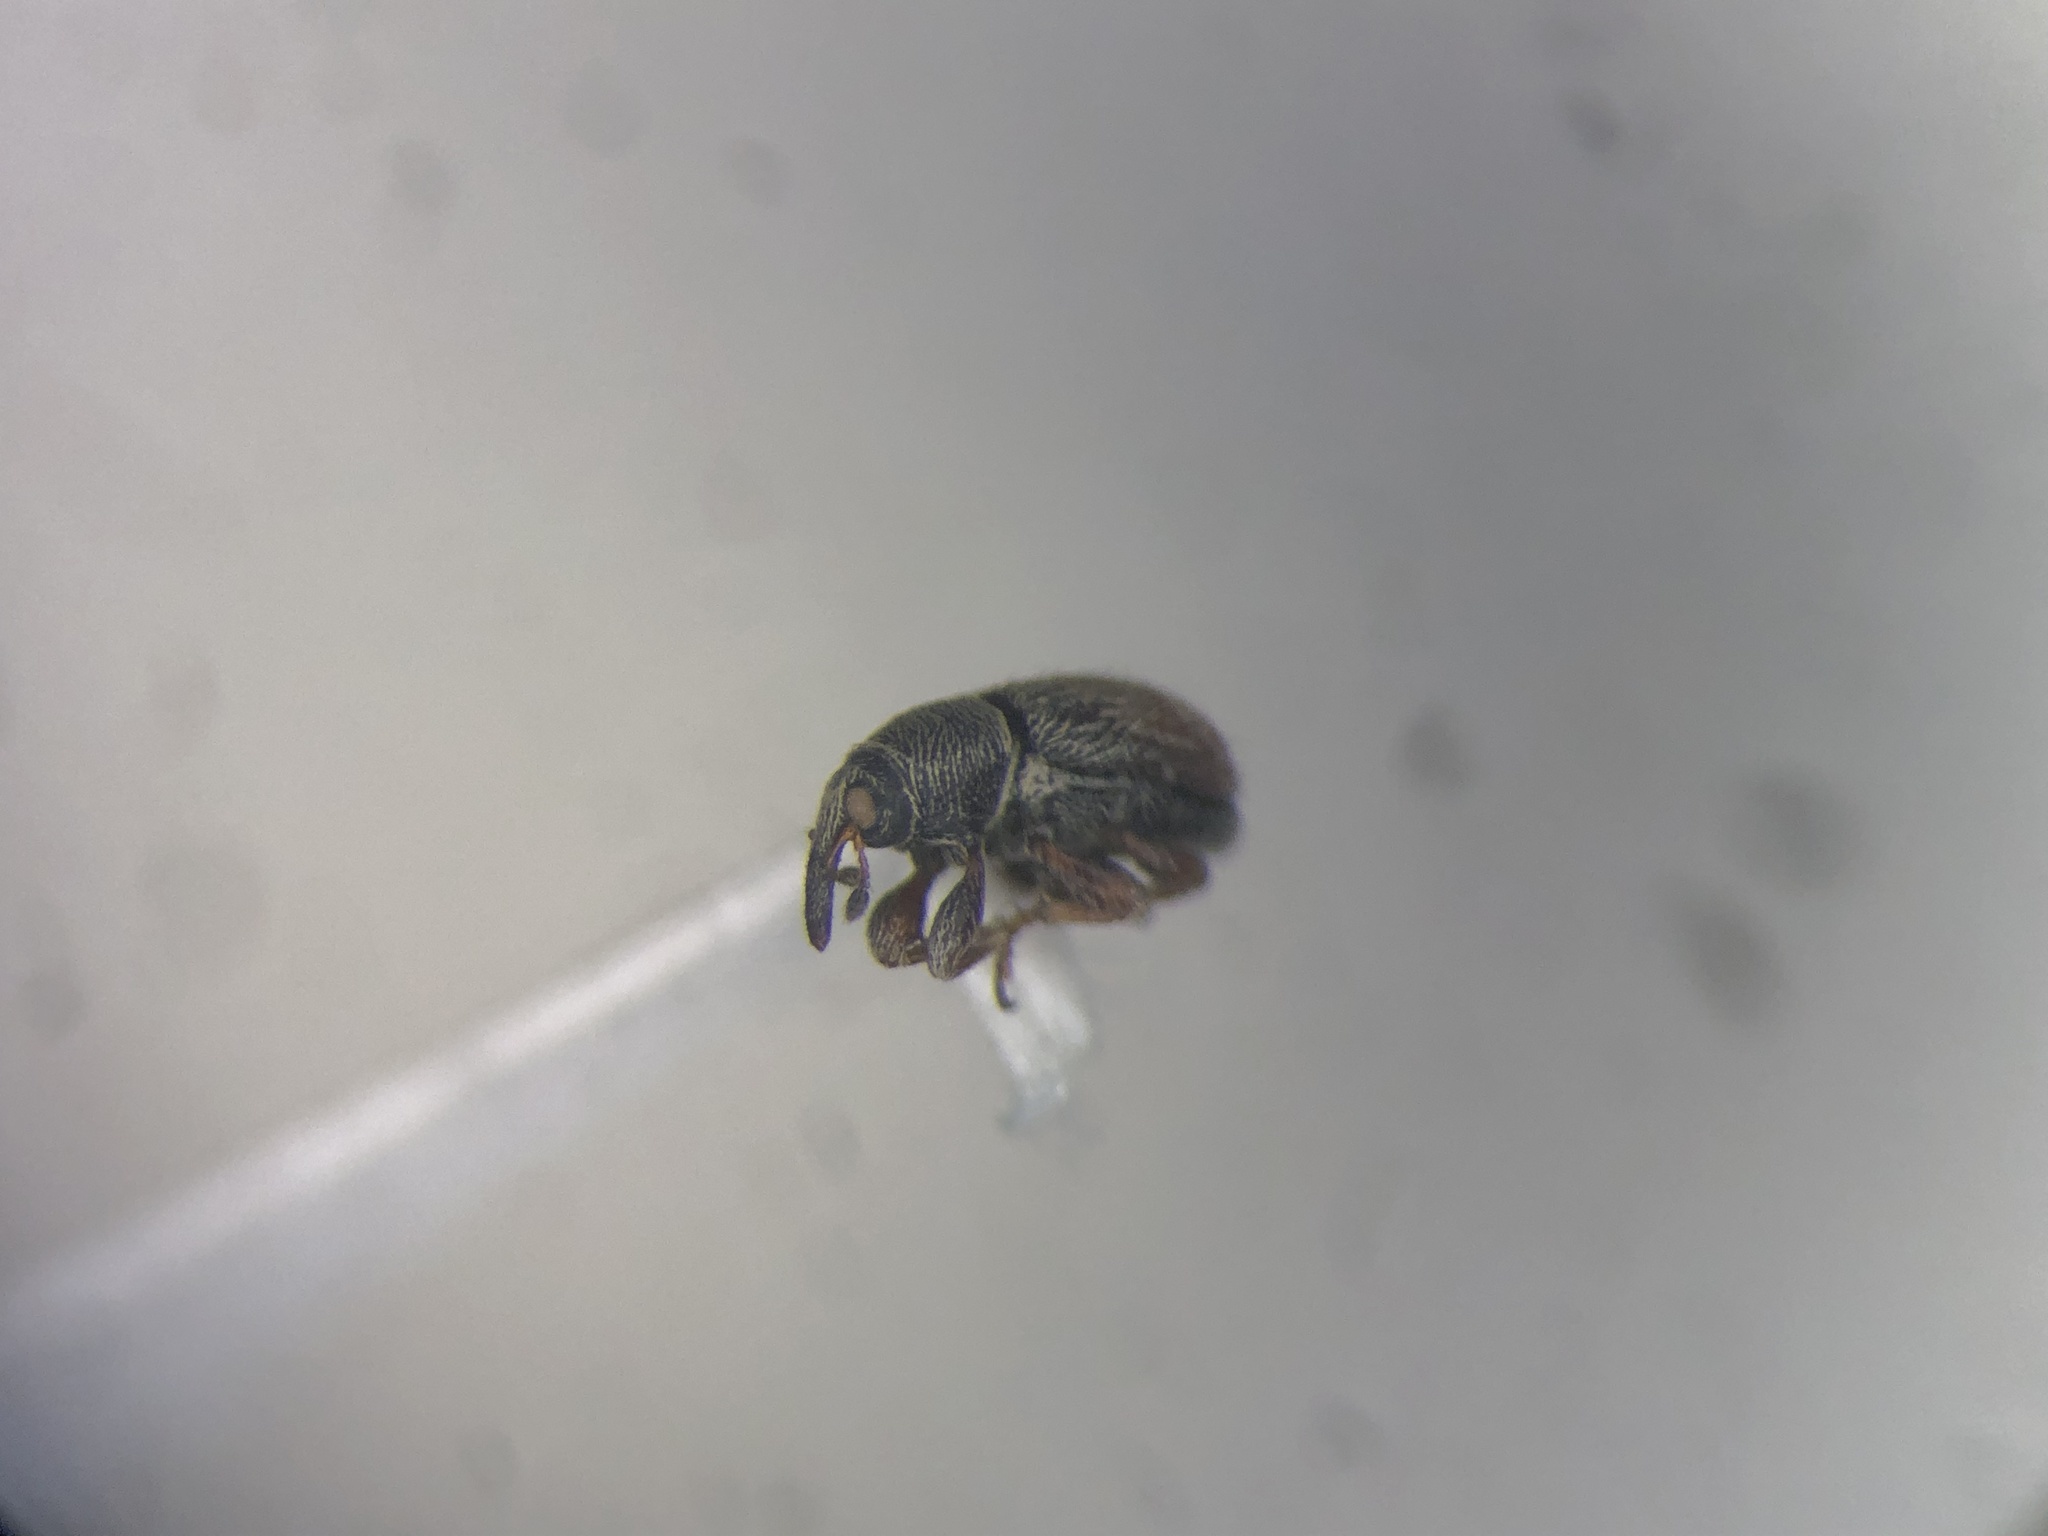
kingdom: Animalia
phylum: Arthropoda
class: Insecta
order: Coleoptera
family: Curculionidae
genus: Mecinus
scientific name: Mecinus pascuorum
